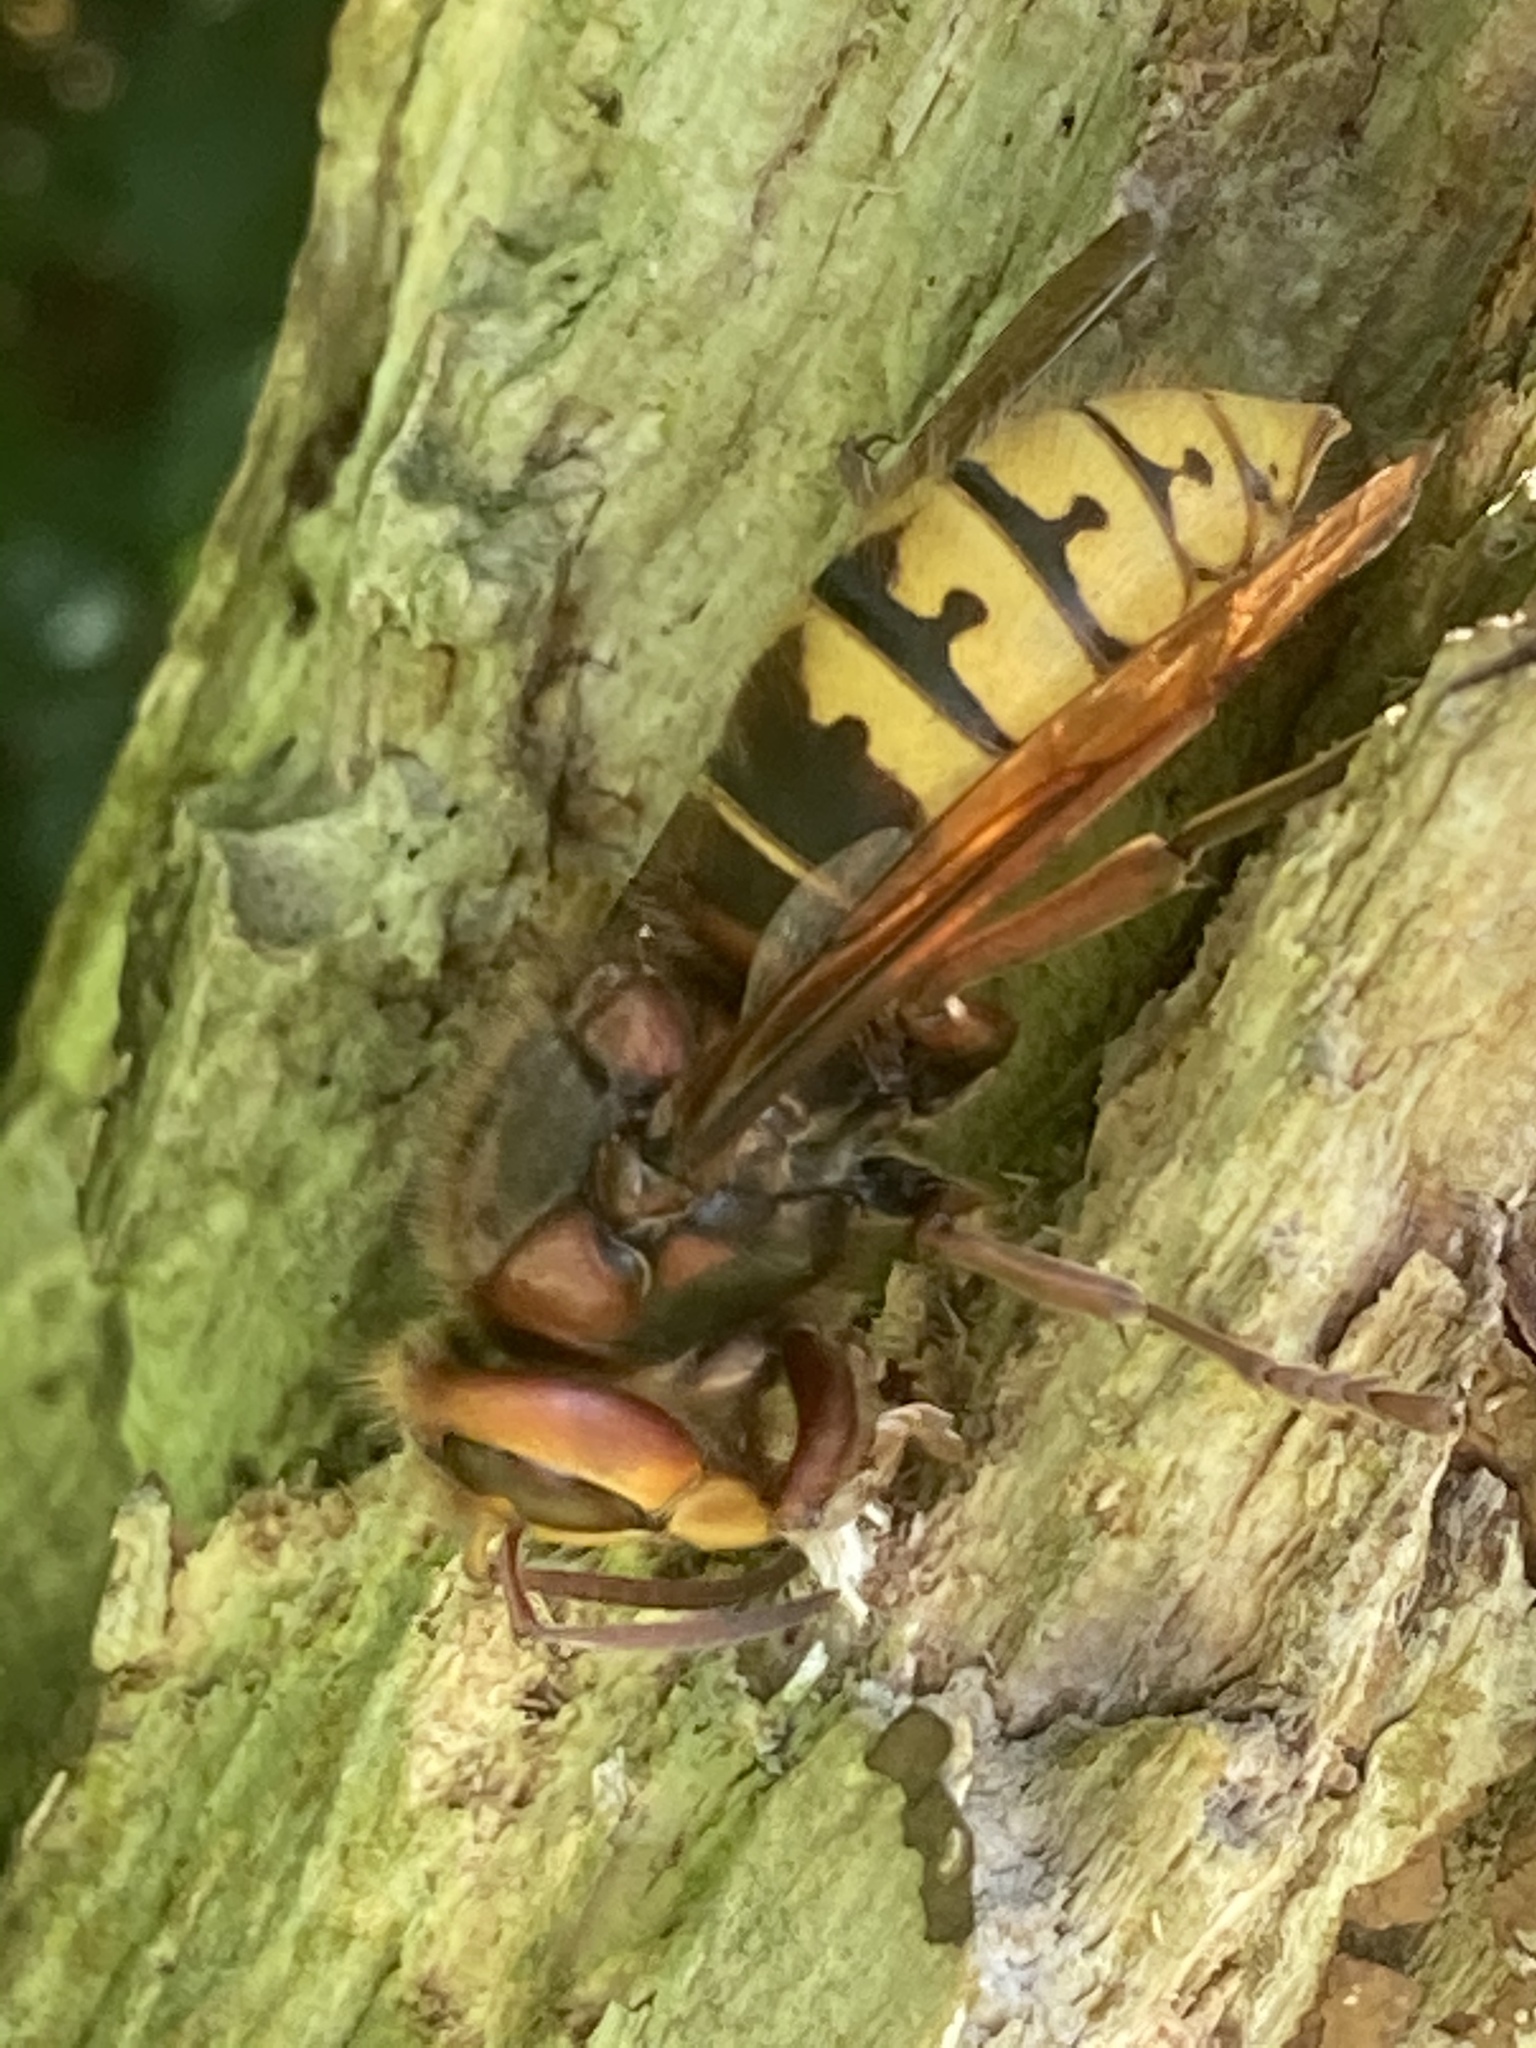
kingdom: Animalia
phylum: Arthropoda
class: Insecta
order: Hymenoptera
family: Vespidae
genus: Vespa
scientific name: Vespa crabro
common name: Hornet
